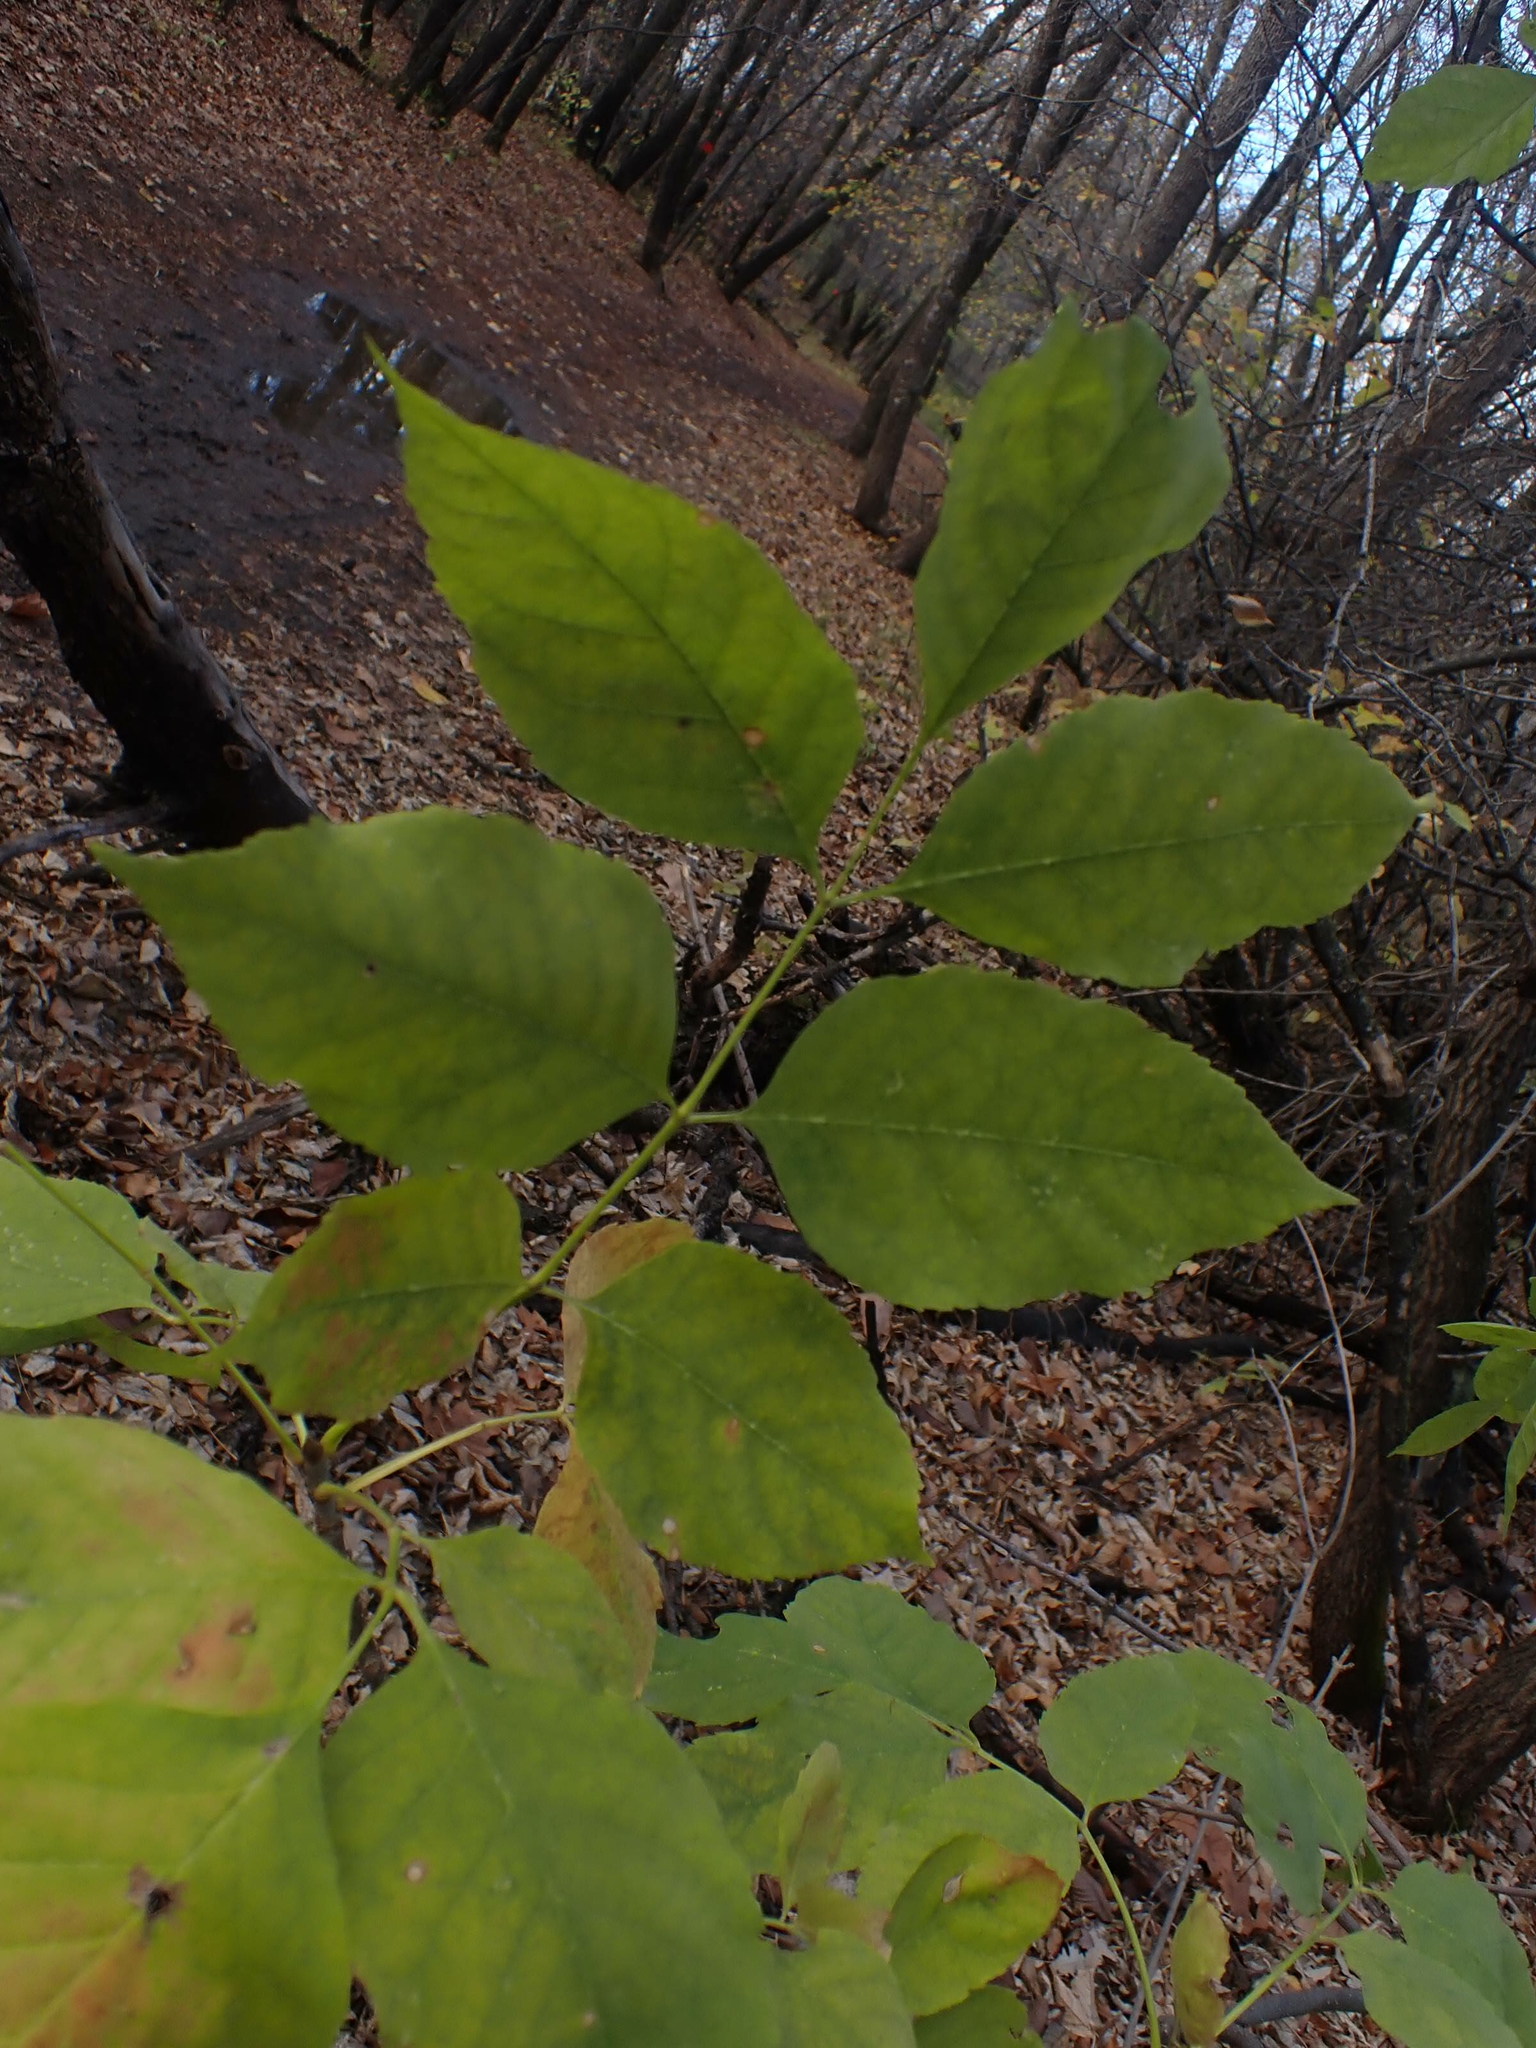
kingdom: Plantae
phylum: Tracheophyta
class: Magnoliopsida
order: Lamiales
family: Oleaceae
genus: Fraxinus
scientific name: Fraxinus pennsylvanica
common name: Green ash
